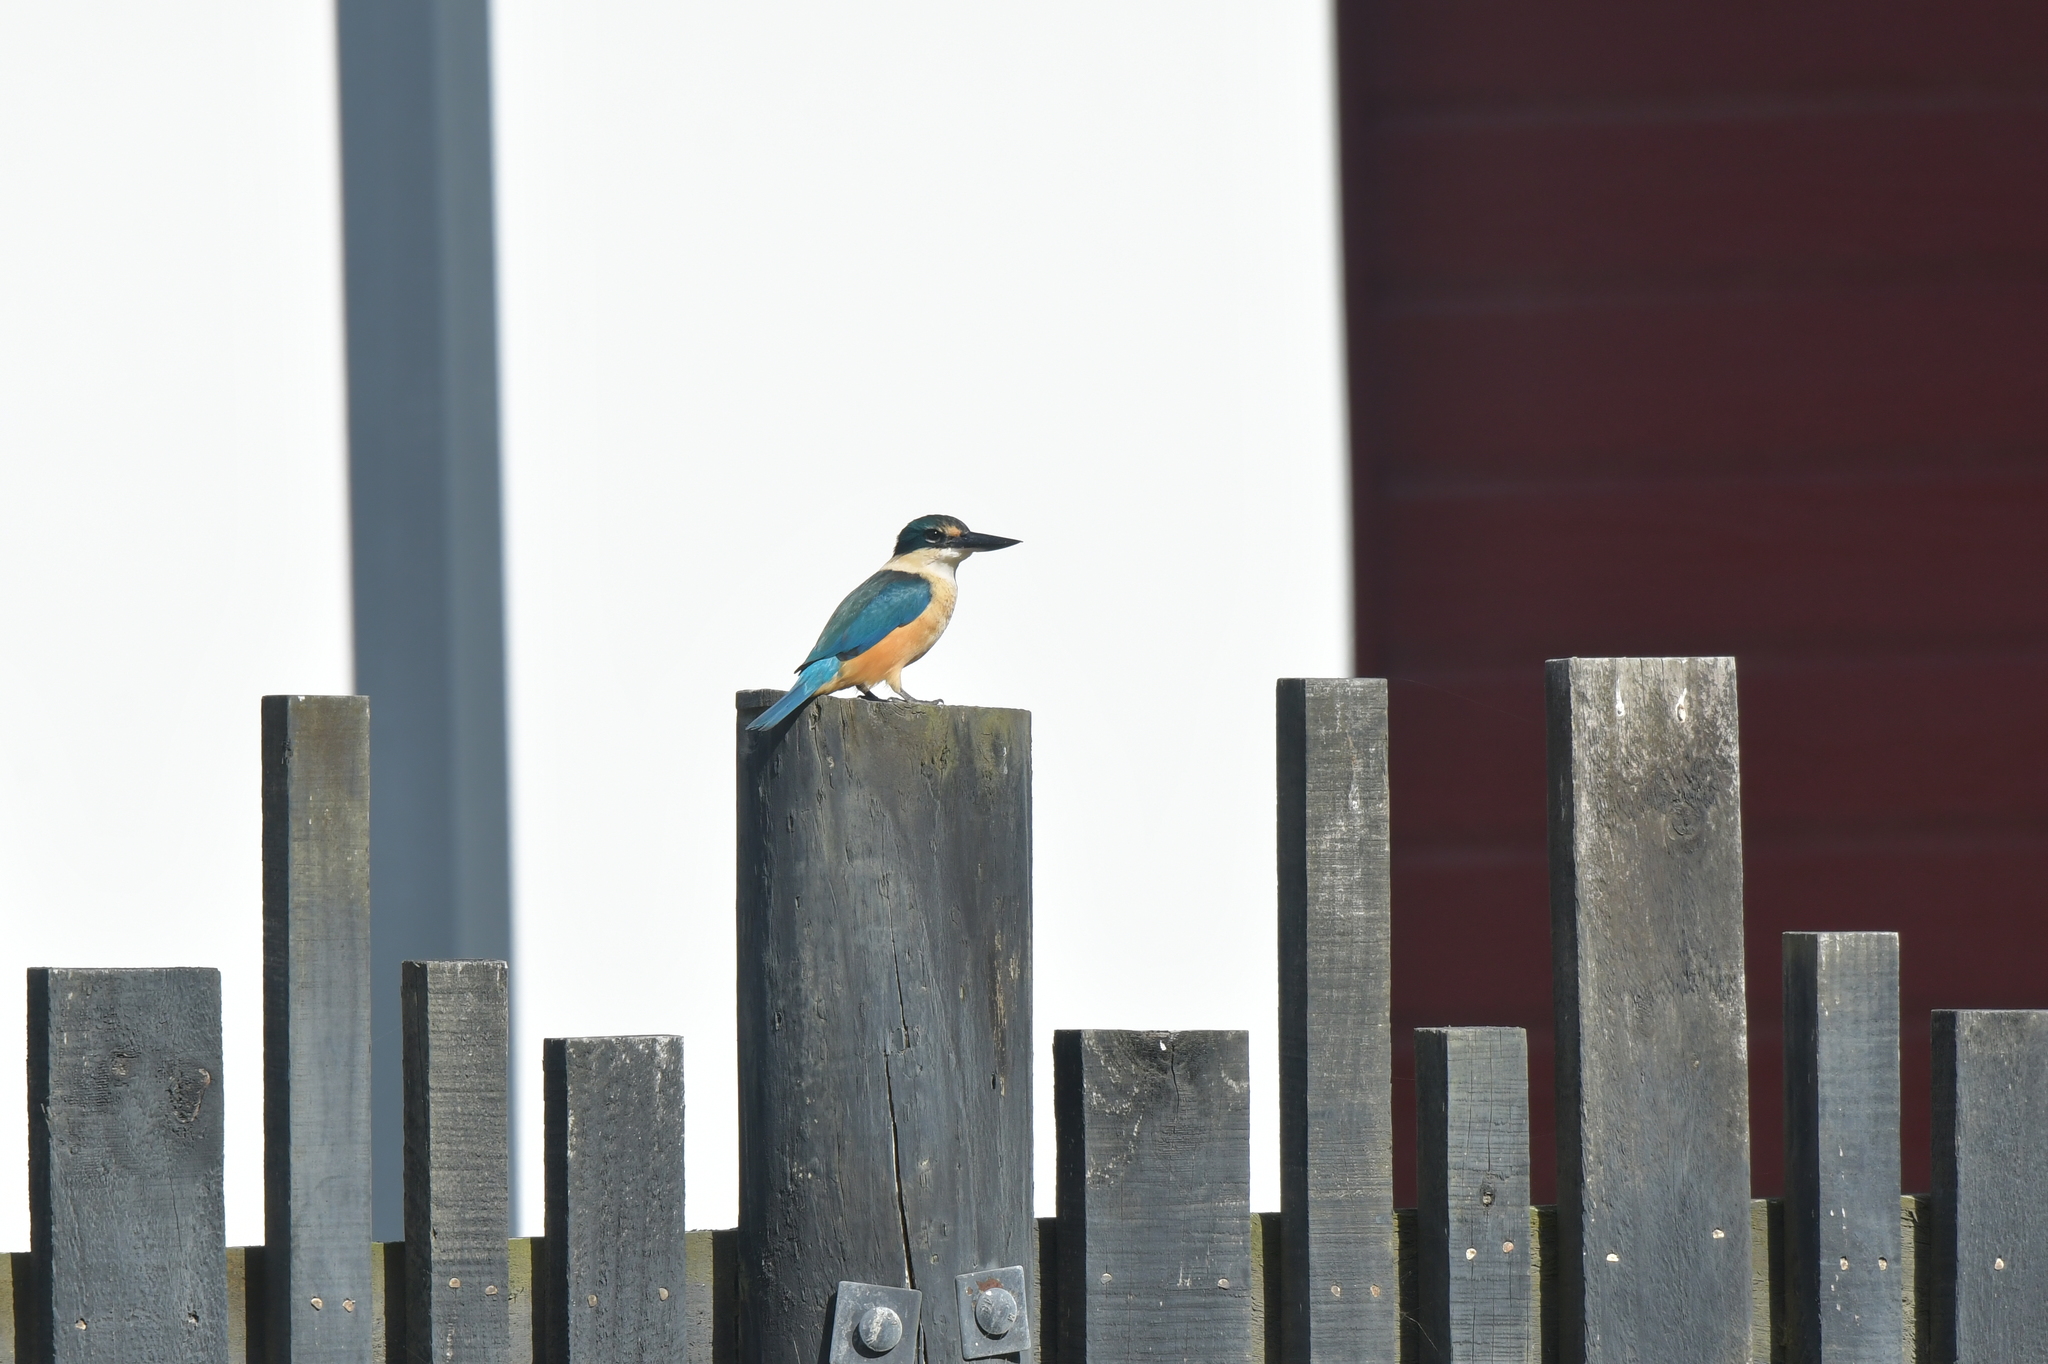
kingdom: Animalia
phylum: Chordata
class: Aves
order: Coraciiformes
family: Alcedinidae
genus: Todiramphus
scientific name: Todiramphus sanctus
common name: Sacred kingfisher
